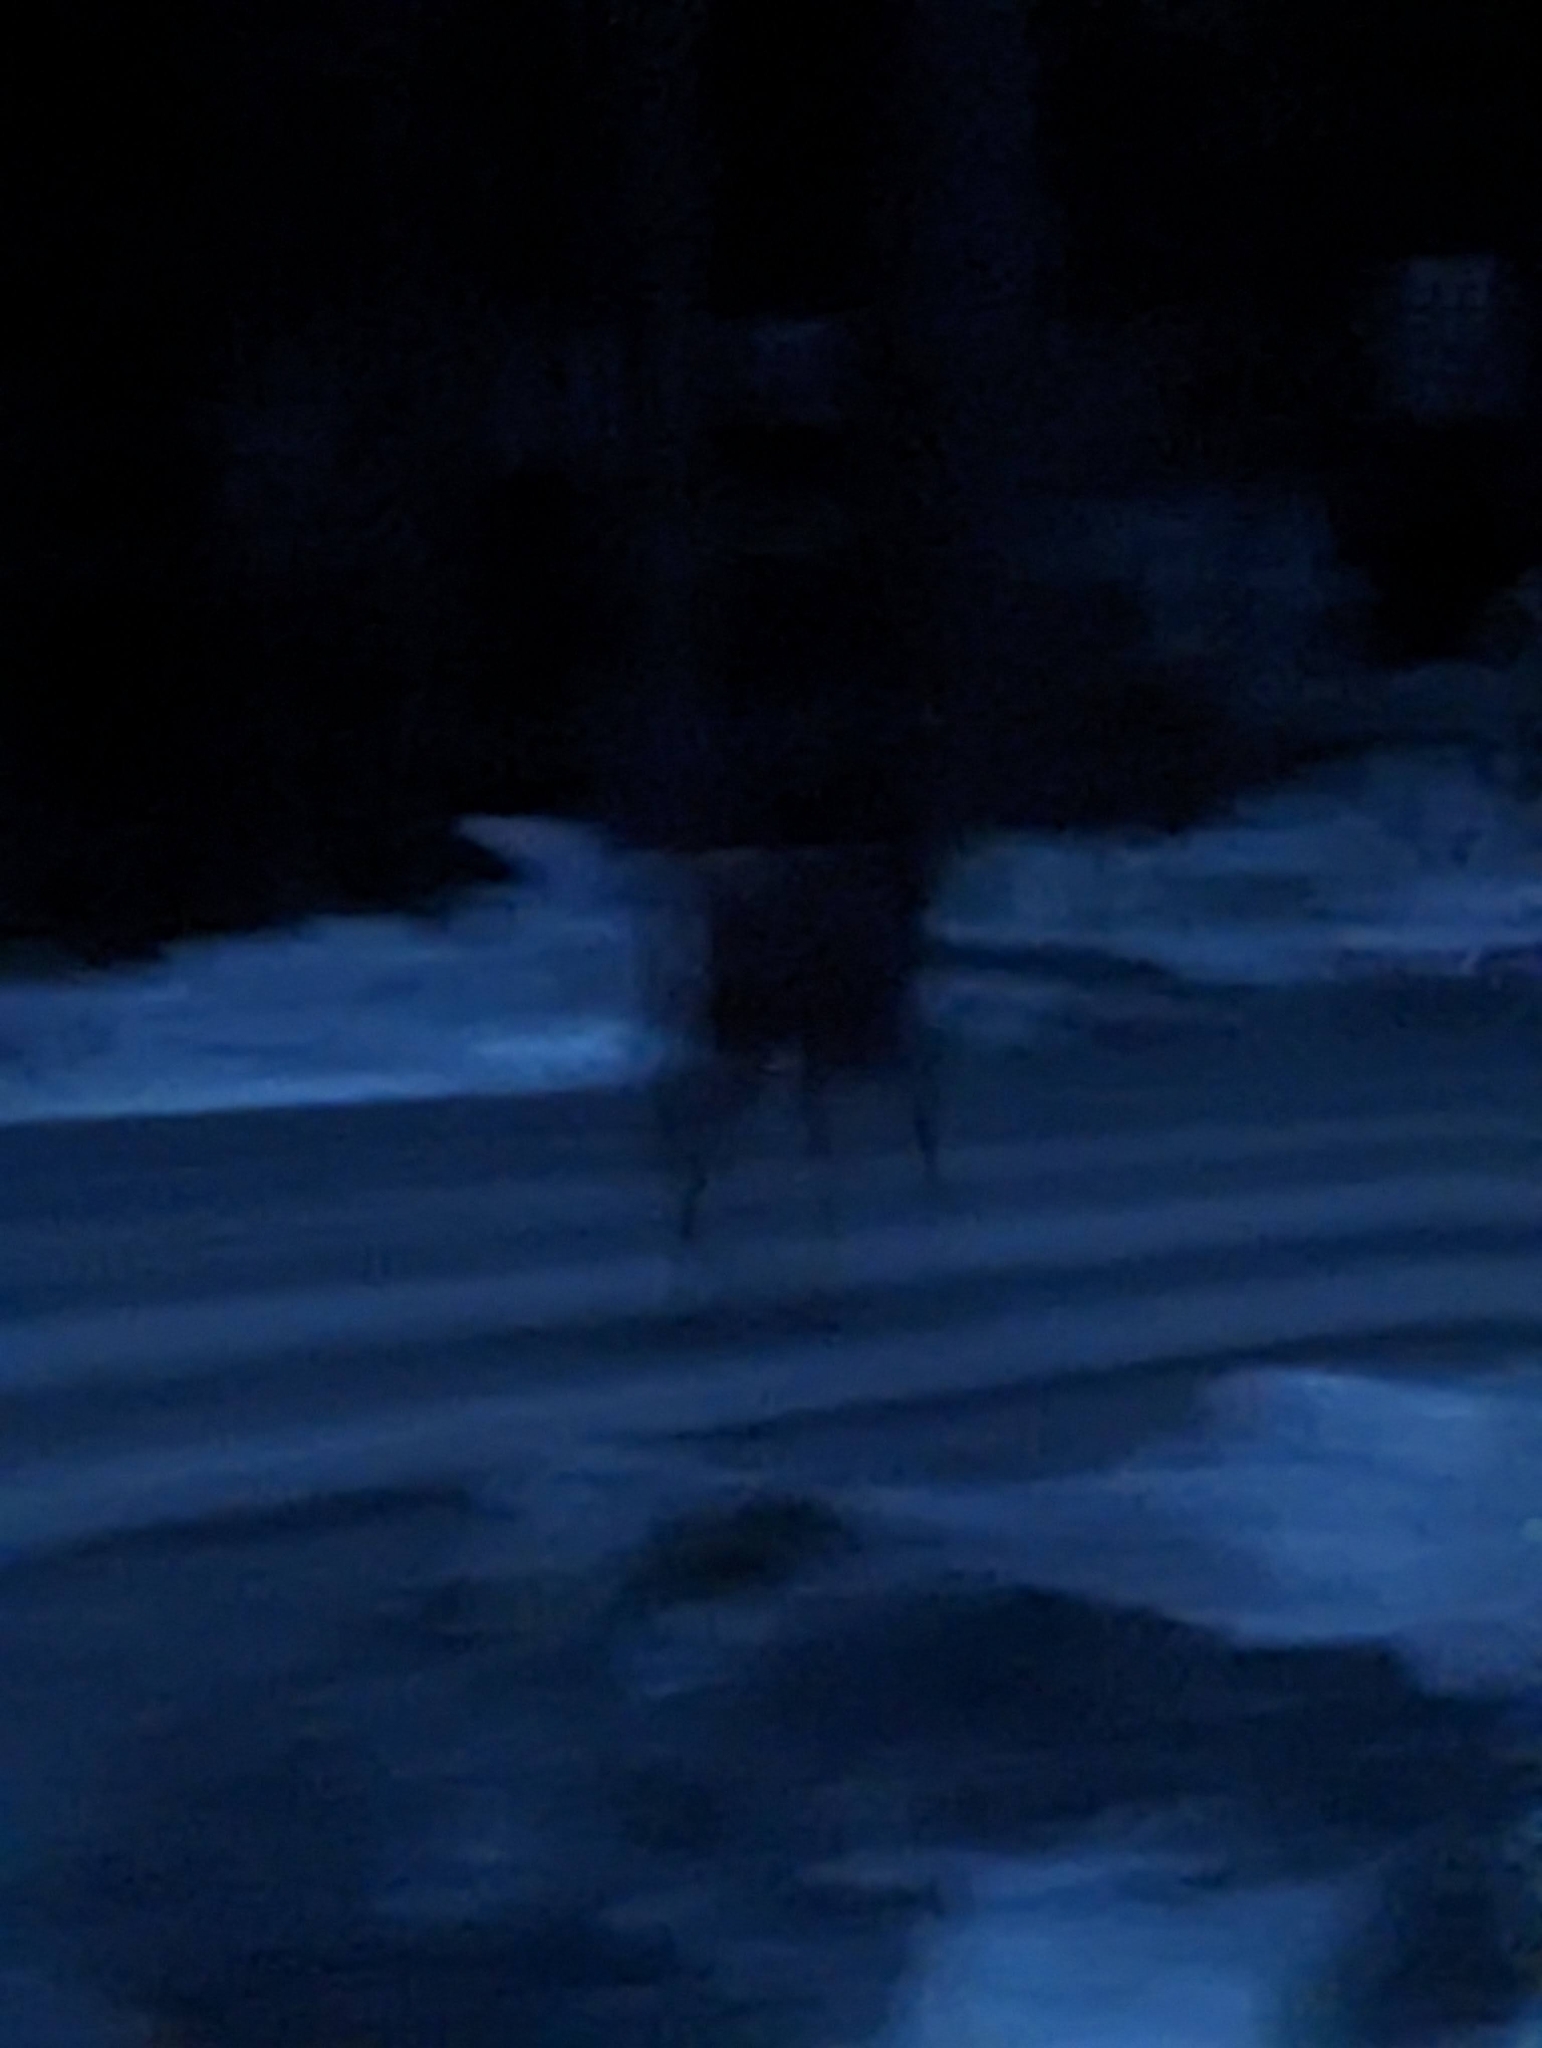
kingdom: Animalia
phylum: Chordata
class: Mammalia
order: Artiodactyla
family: Cervidae
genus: Odocoileus
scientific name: Odocoileus virginianus
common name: White-tailed deer
